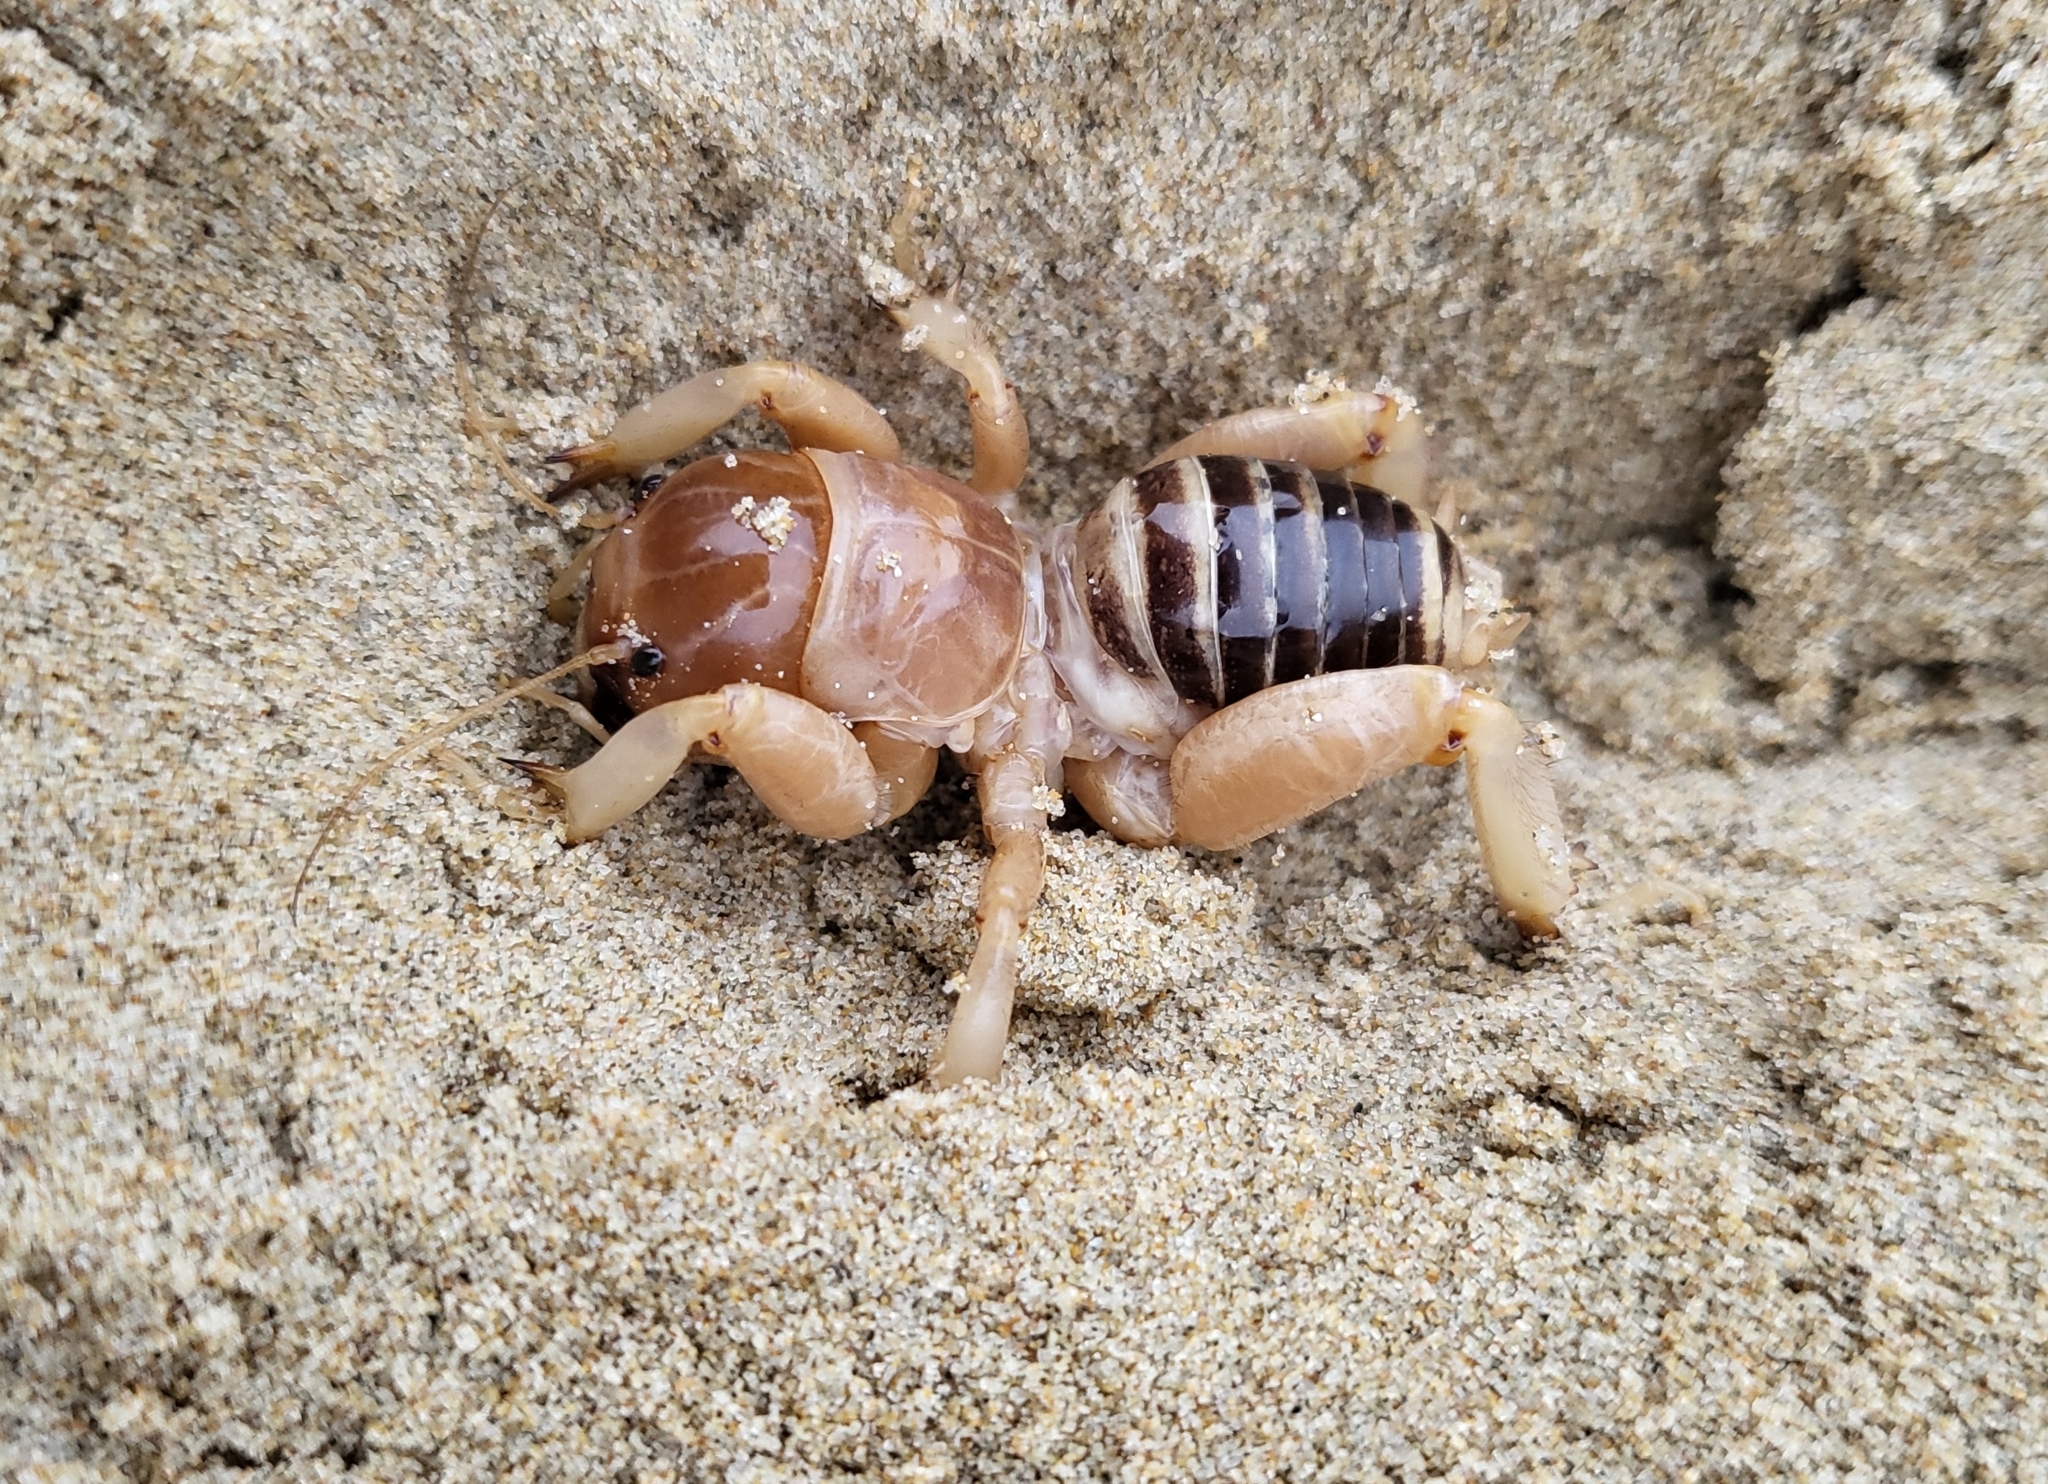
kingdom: Animalia
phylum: Arthropoda
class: Insecta
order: Orthoptera
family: Stenopelmatidae
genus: Ammopelmatus
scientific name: Ammopelmatus muwu
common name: Port conception jerusalem cricket
